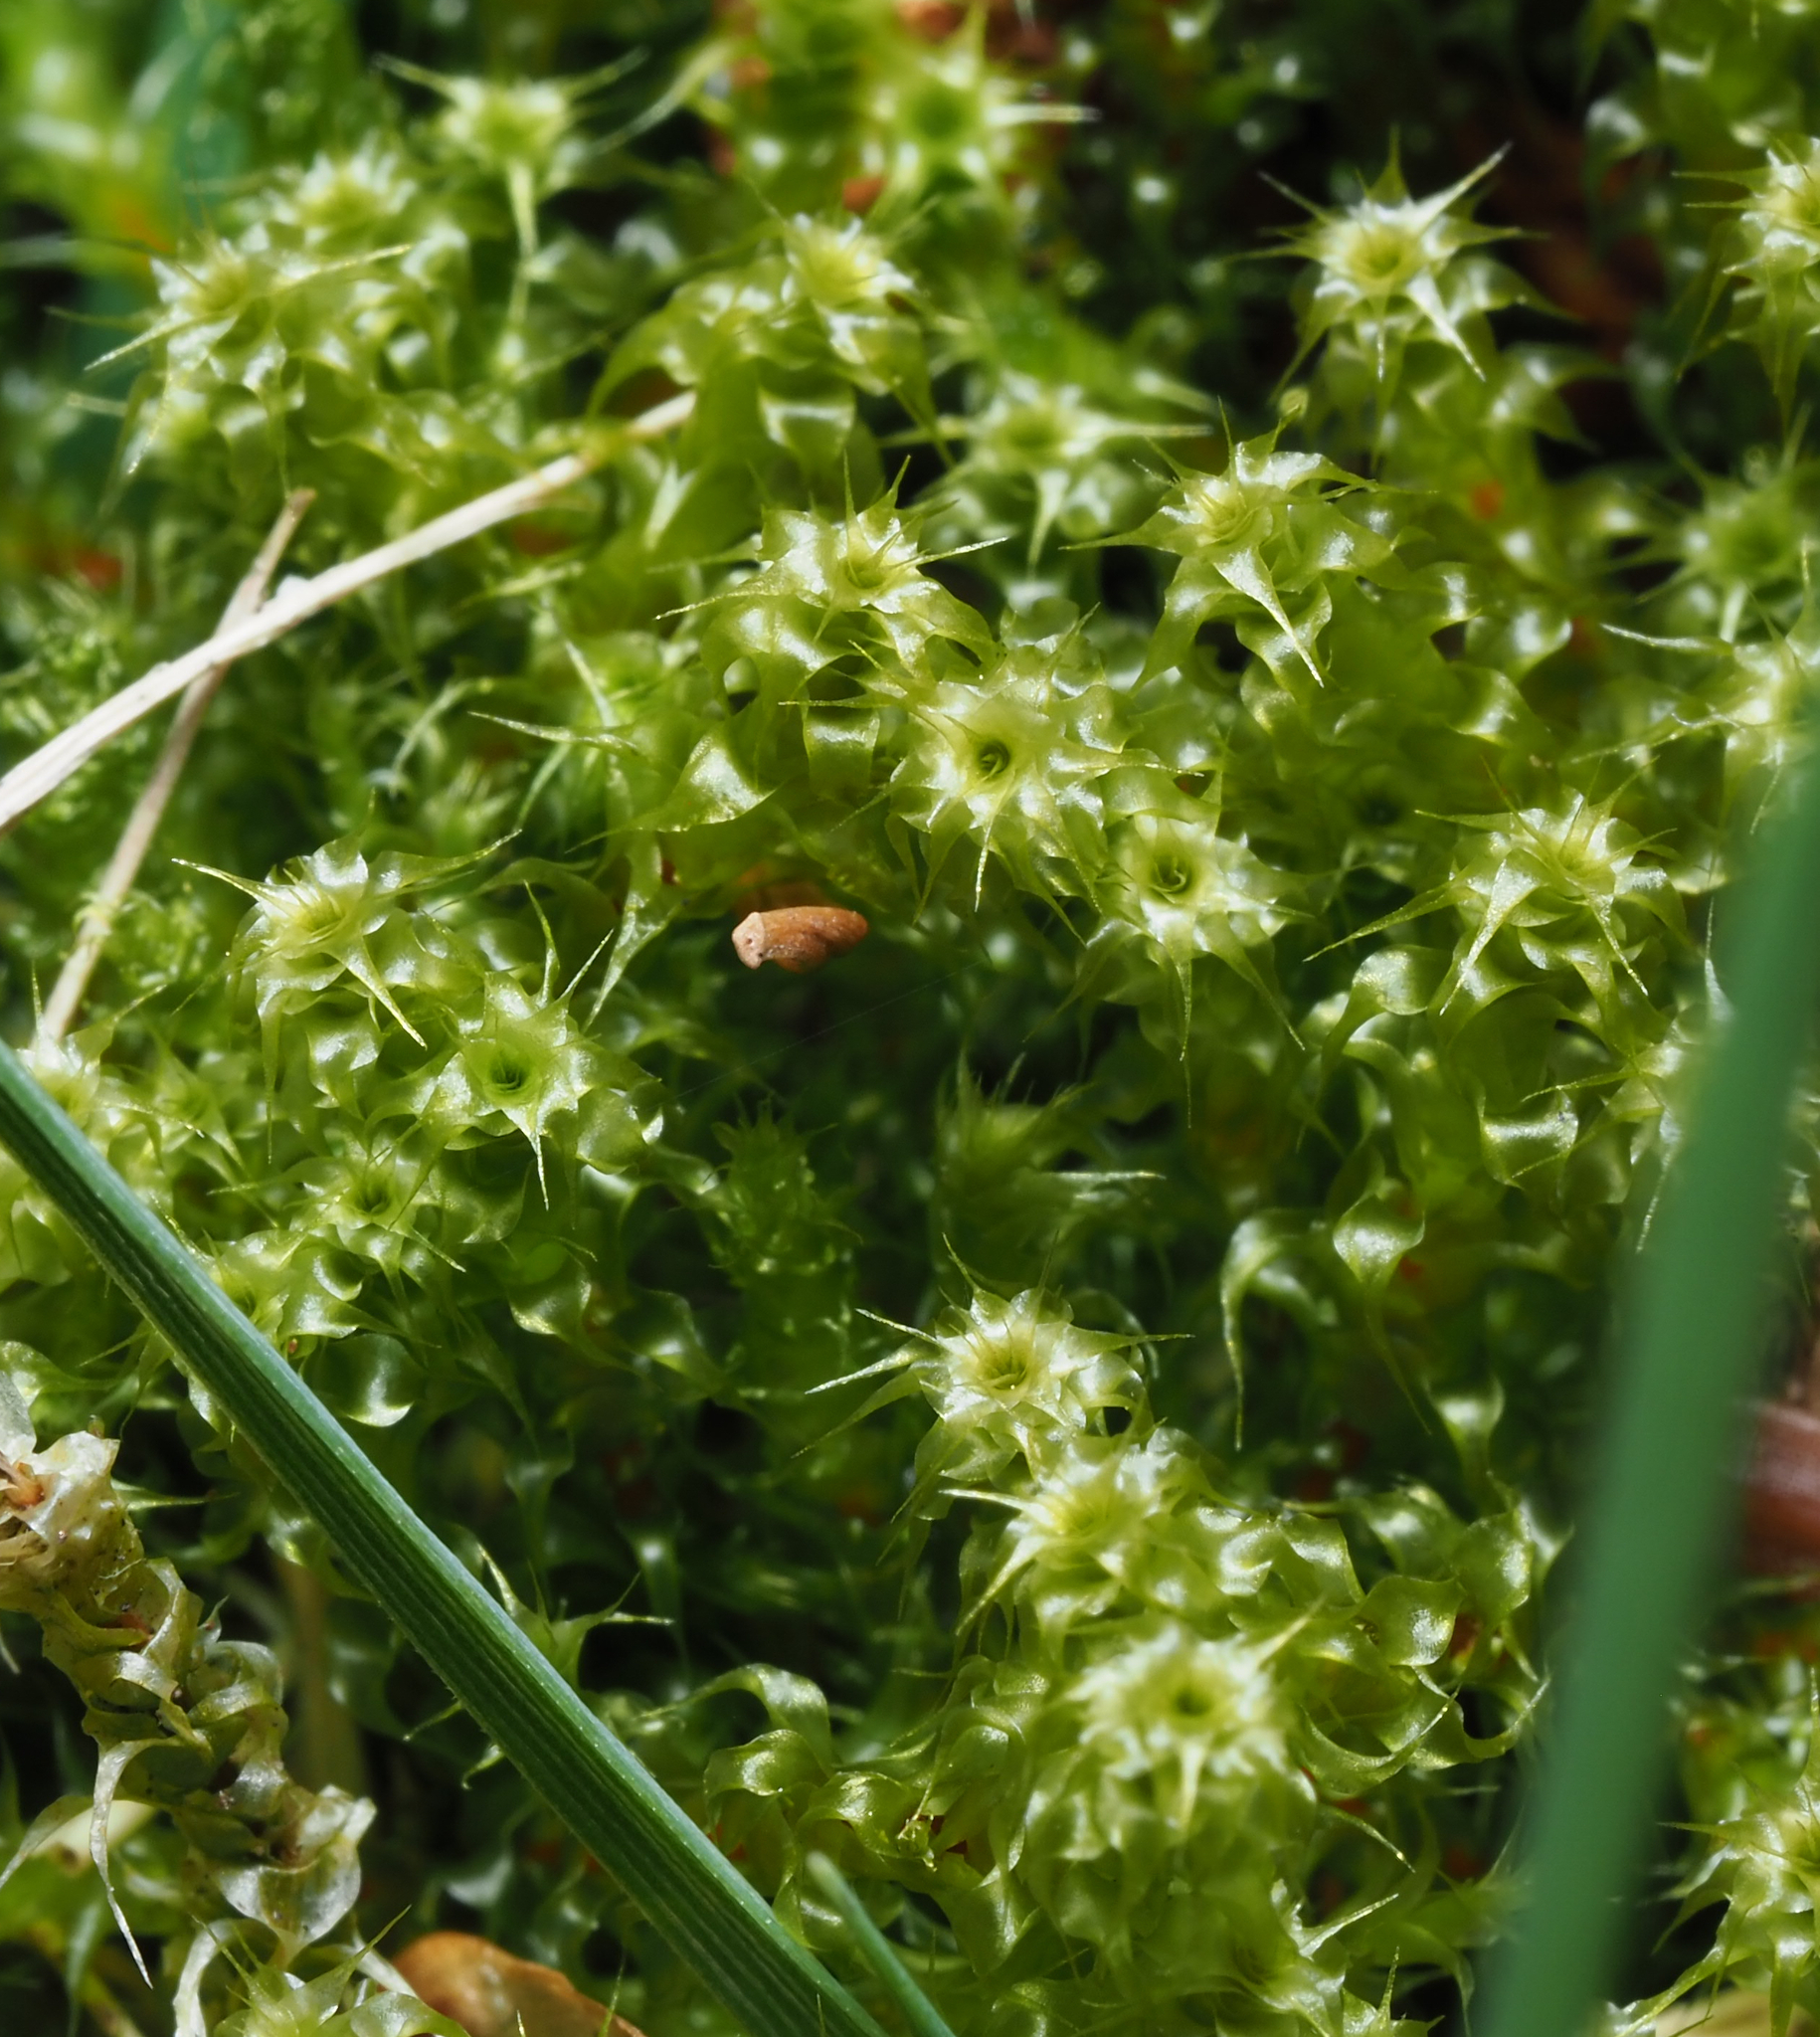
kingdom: Plantae
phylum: Bryophyta
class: Bryopsida
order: Hypnales
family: Hylocomiaceae
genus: Rhytidiadelphus
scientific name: Rhytidiadelphus squarrosus
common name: Springy turf-moss
